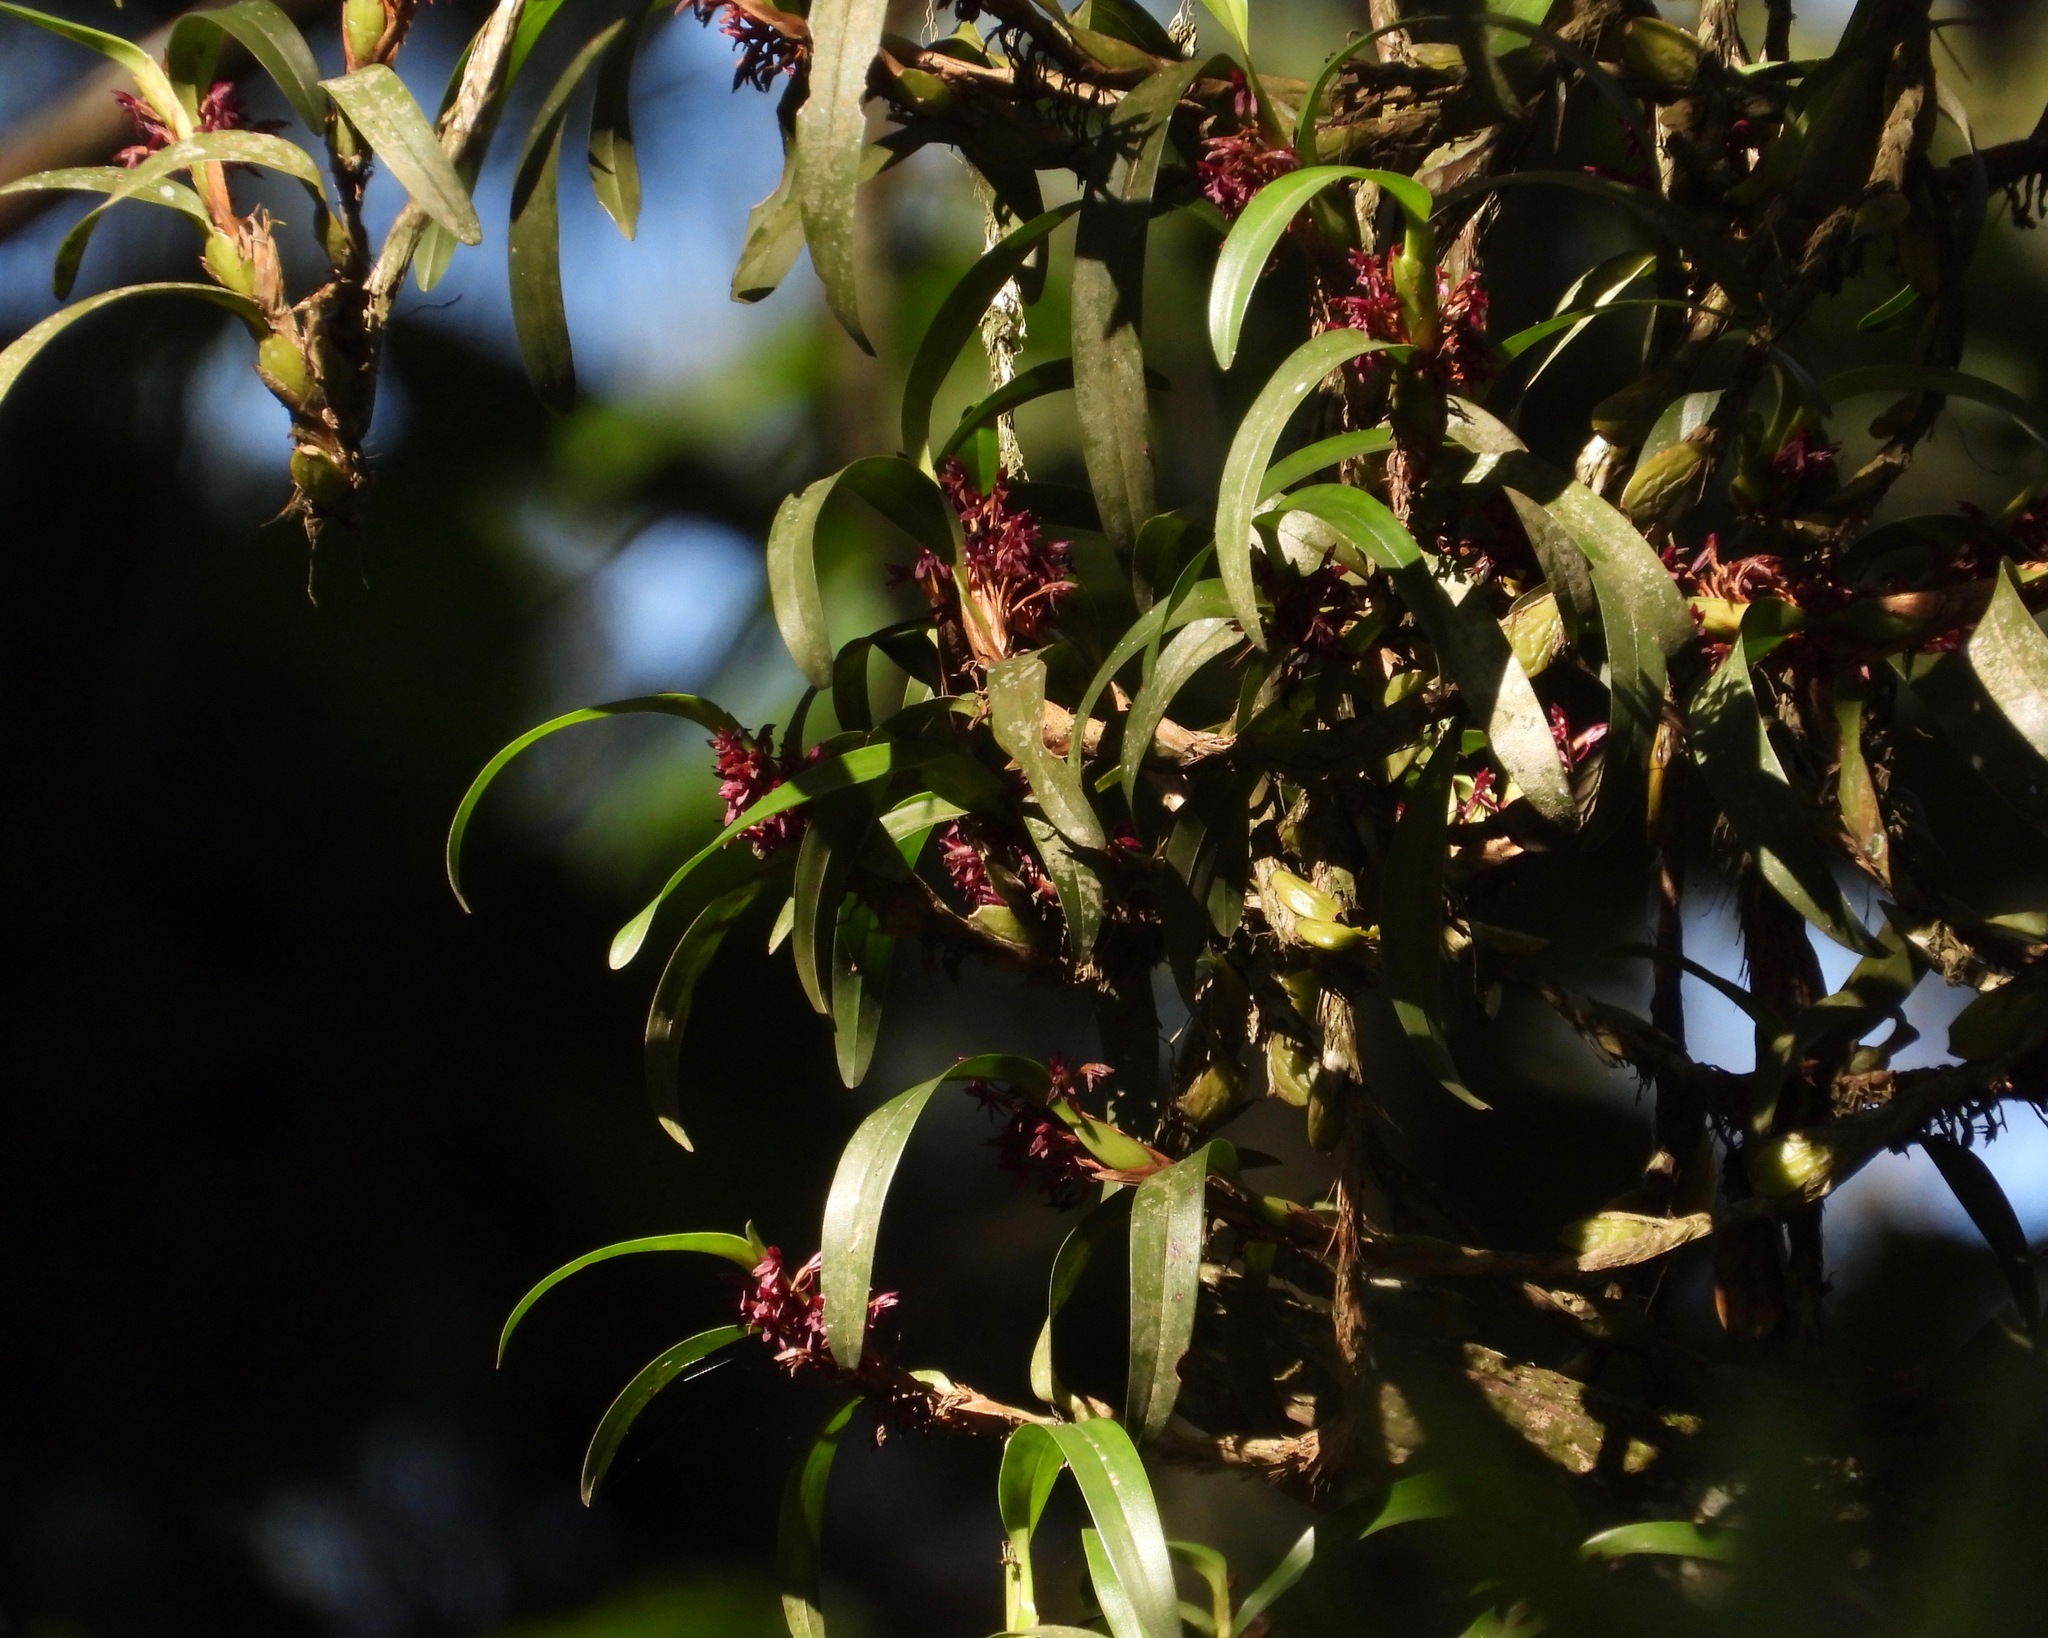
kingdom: Plantae
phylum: Tracheophyta
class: Liliopsida
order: Asparagales
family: Orchidaceae
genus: Maxillaria
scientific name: Maxillaria hagsateriana
